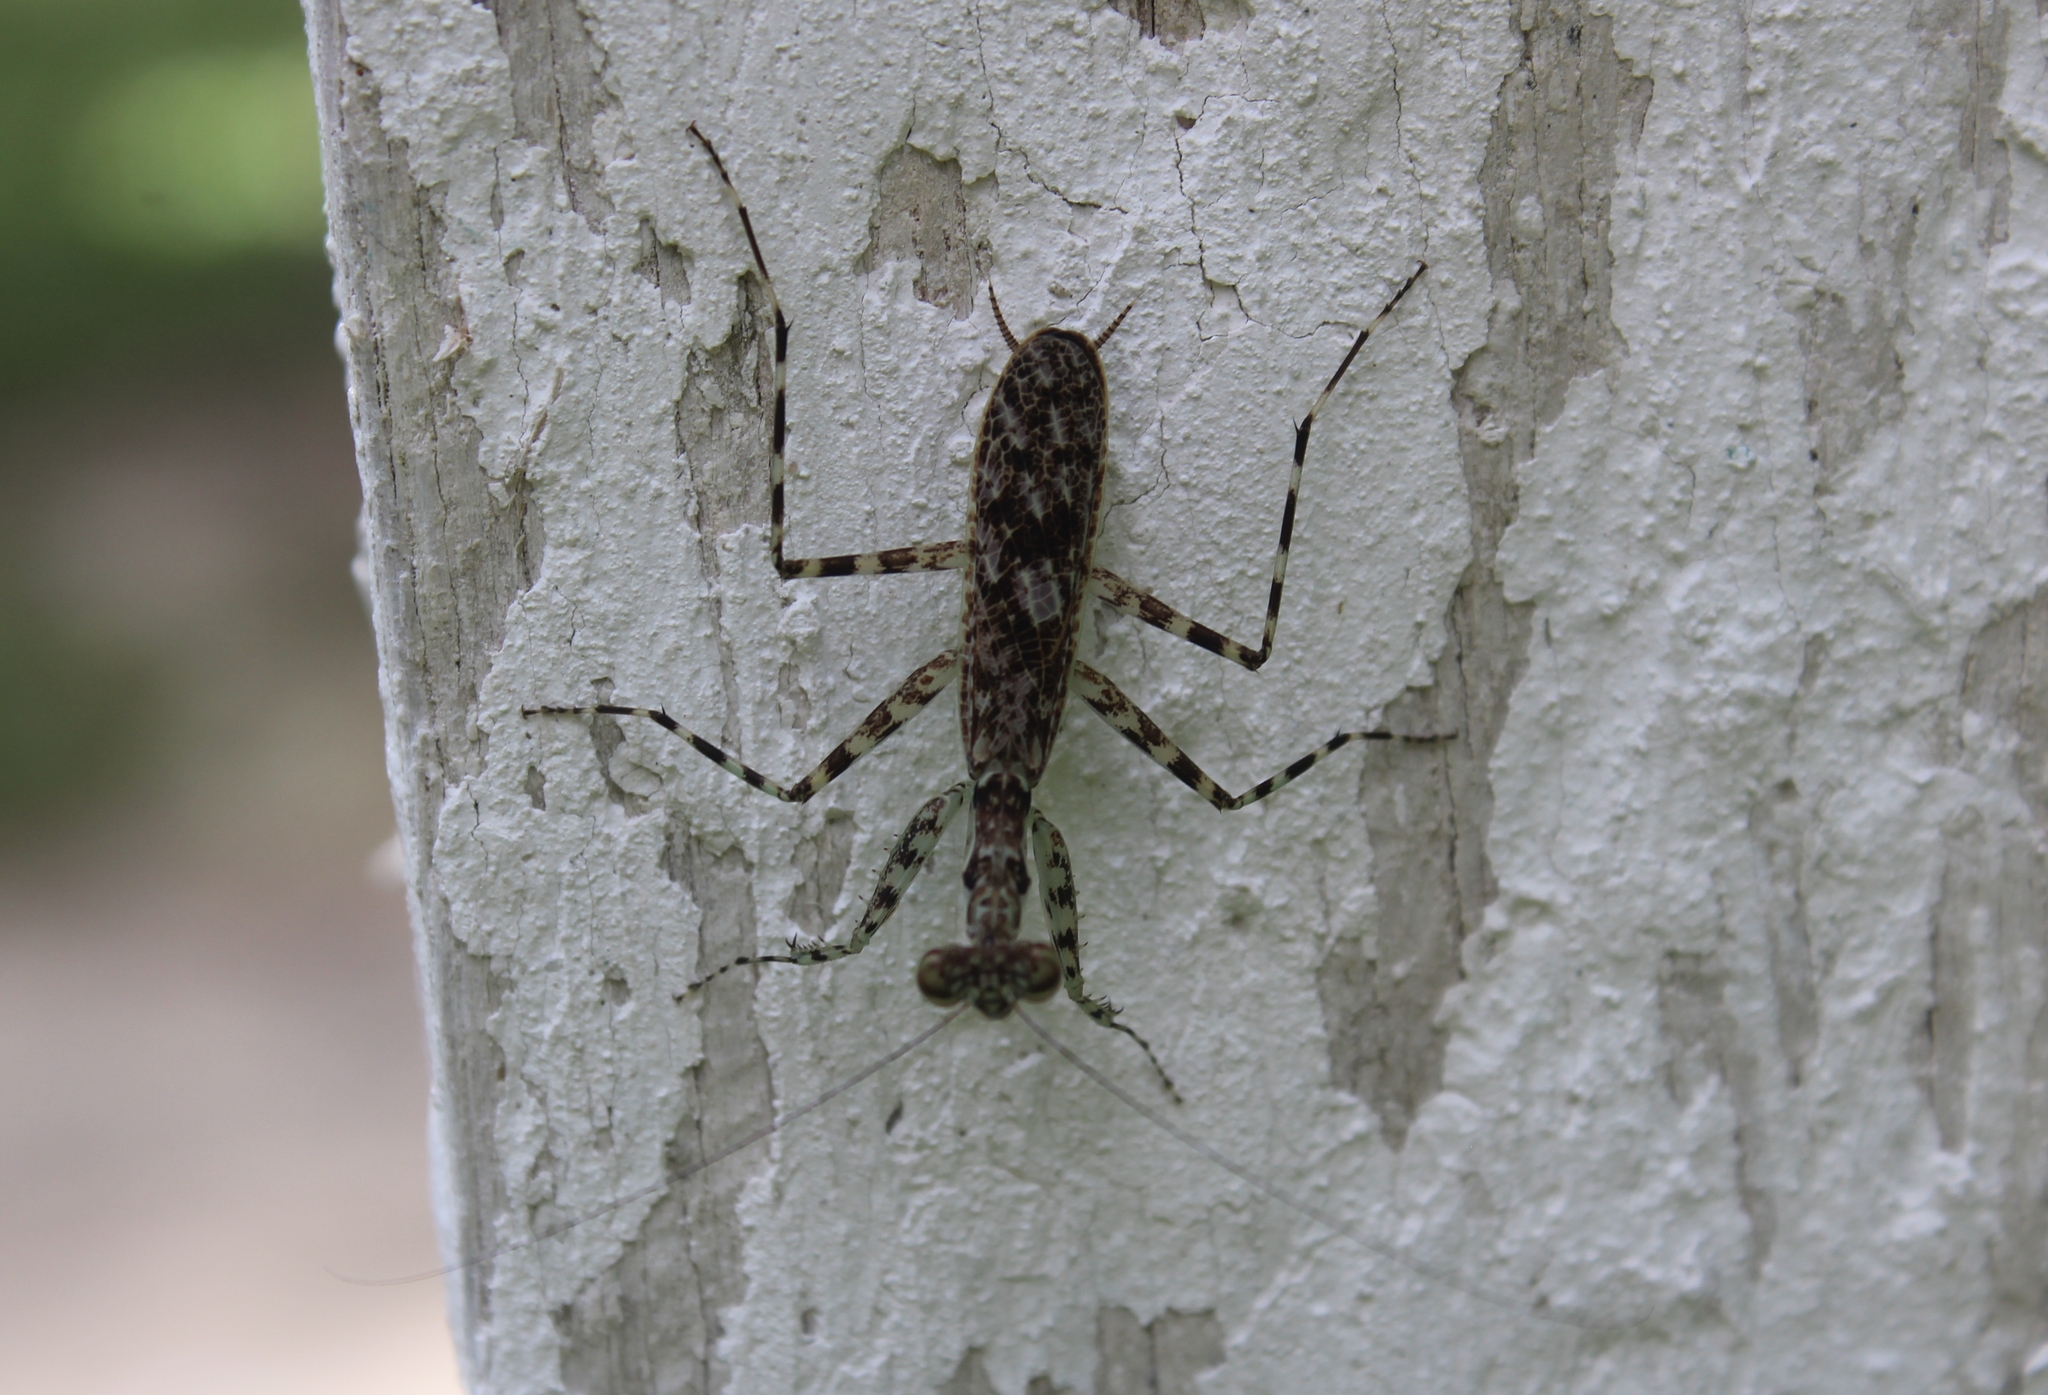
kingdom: Animalia
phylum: Arthropoda
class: Insecta
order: Mantodea
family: Liturgusidae
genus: Liturgusa
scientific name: Liturgusa maya
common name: Mantis
